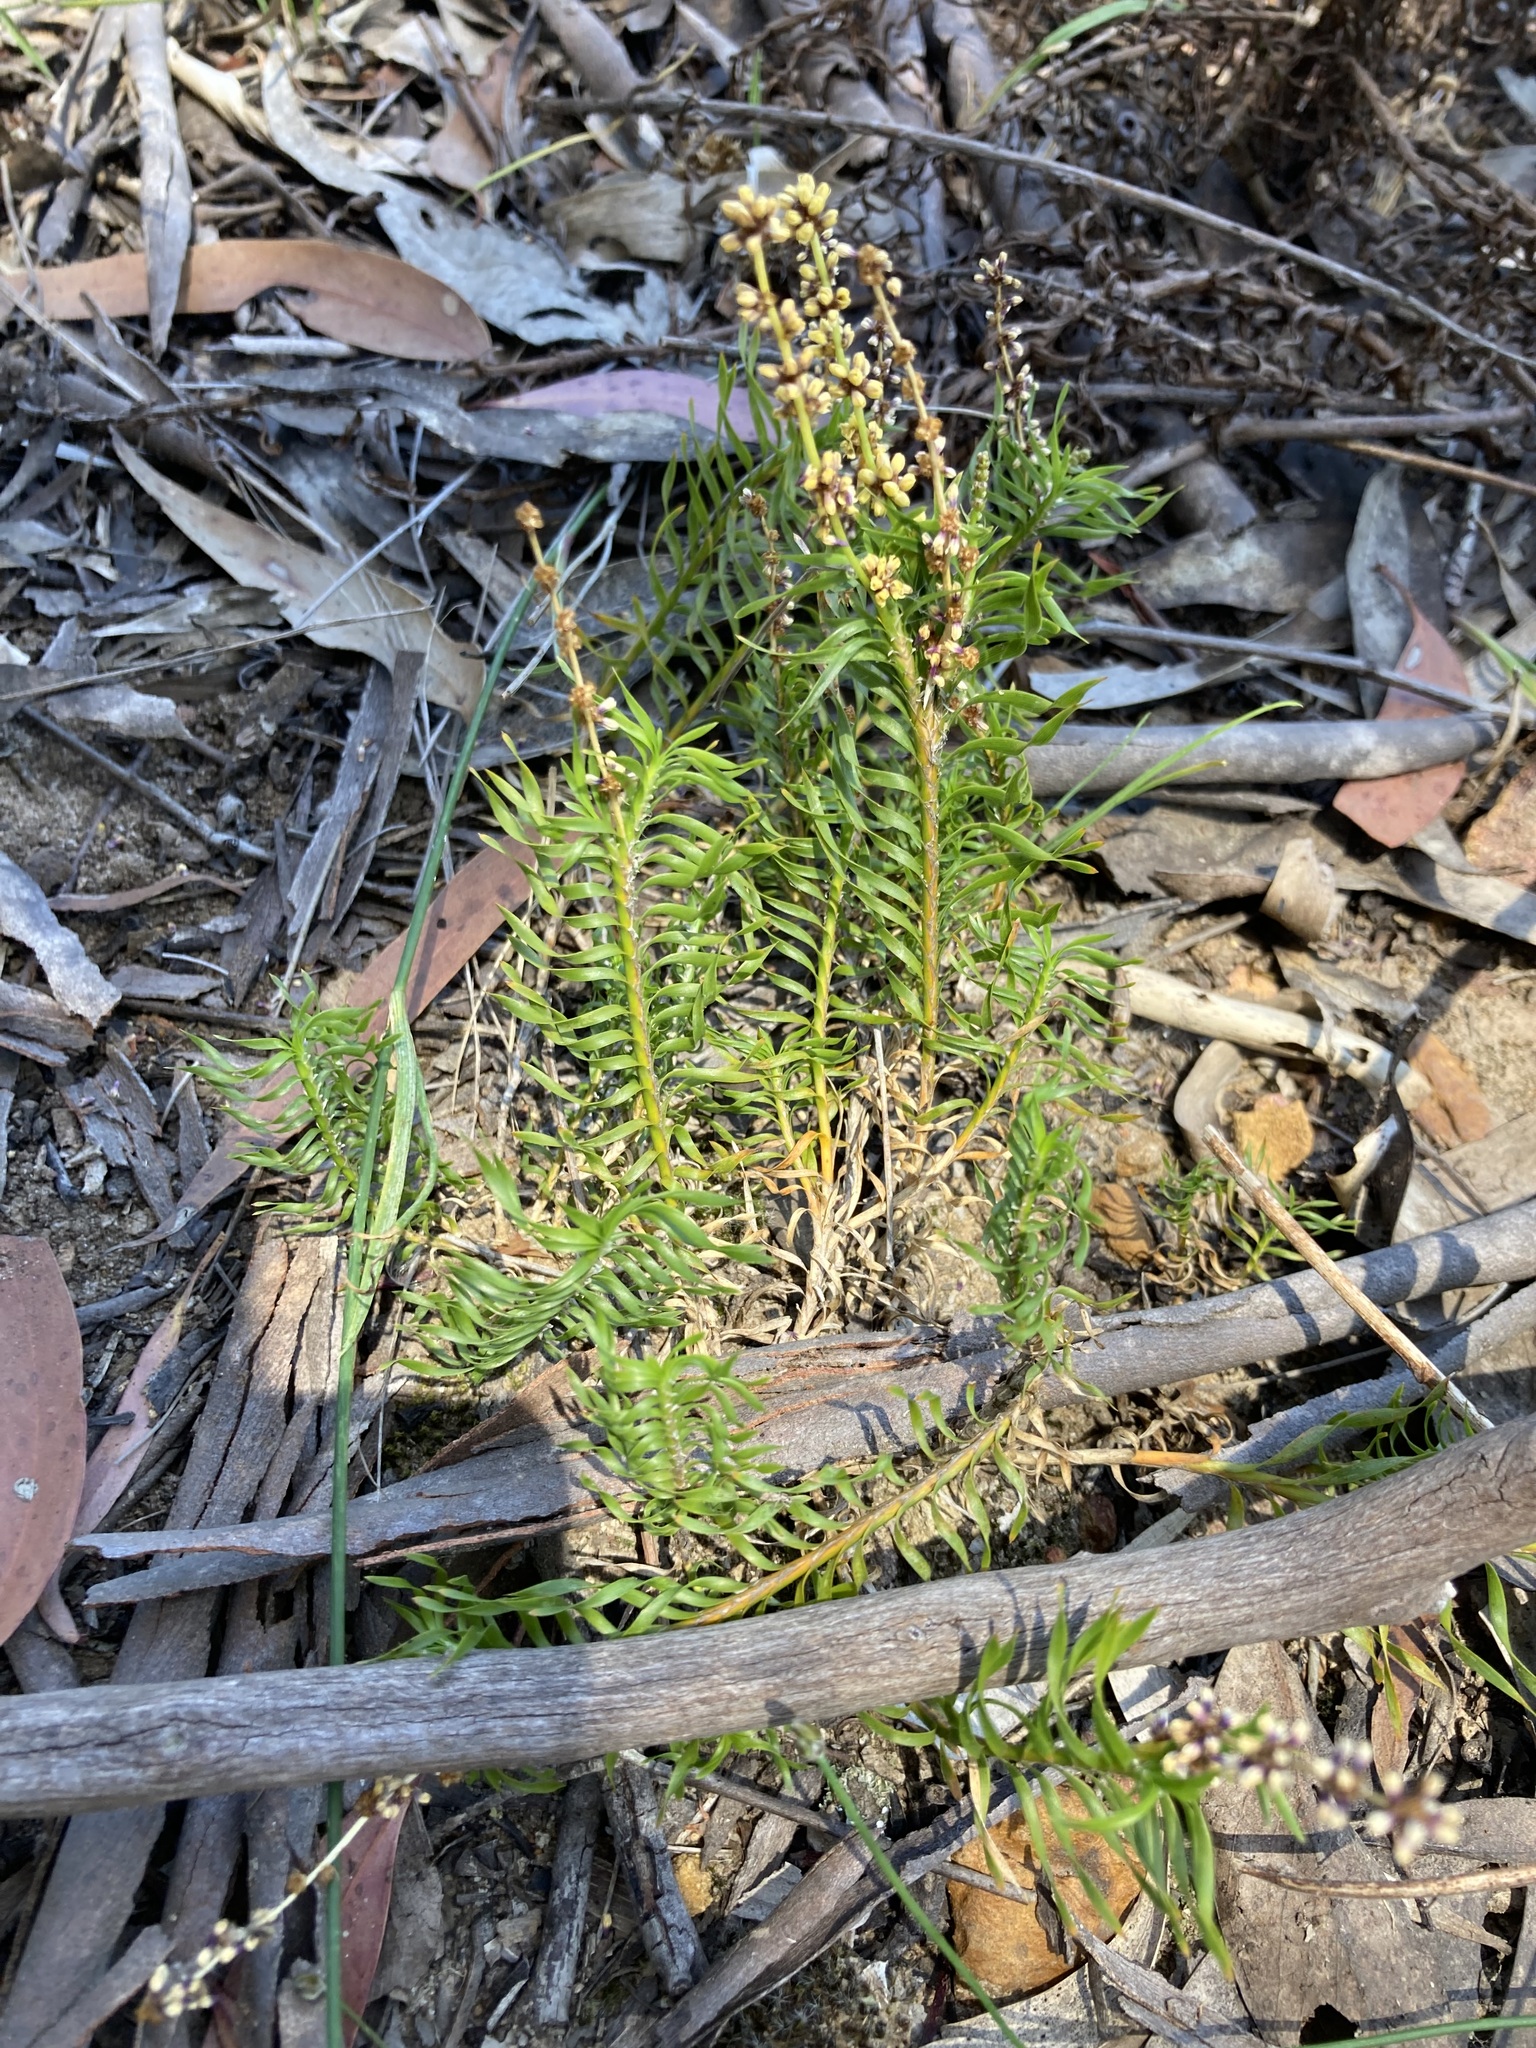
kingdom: Plantae
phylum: Tracheophyta
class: Liliopsida
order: Asparagales
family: Asparagaceae
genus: Lomandra
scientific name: Lomandra obliqua
